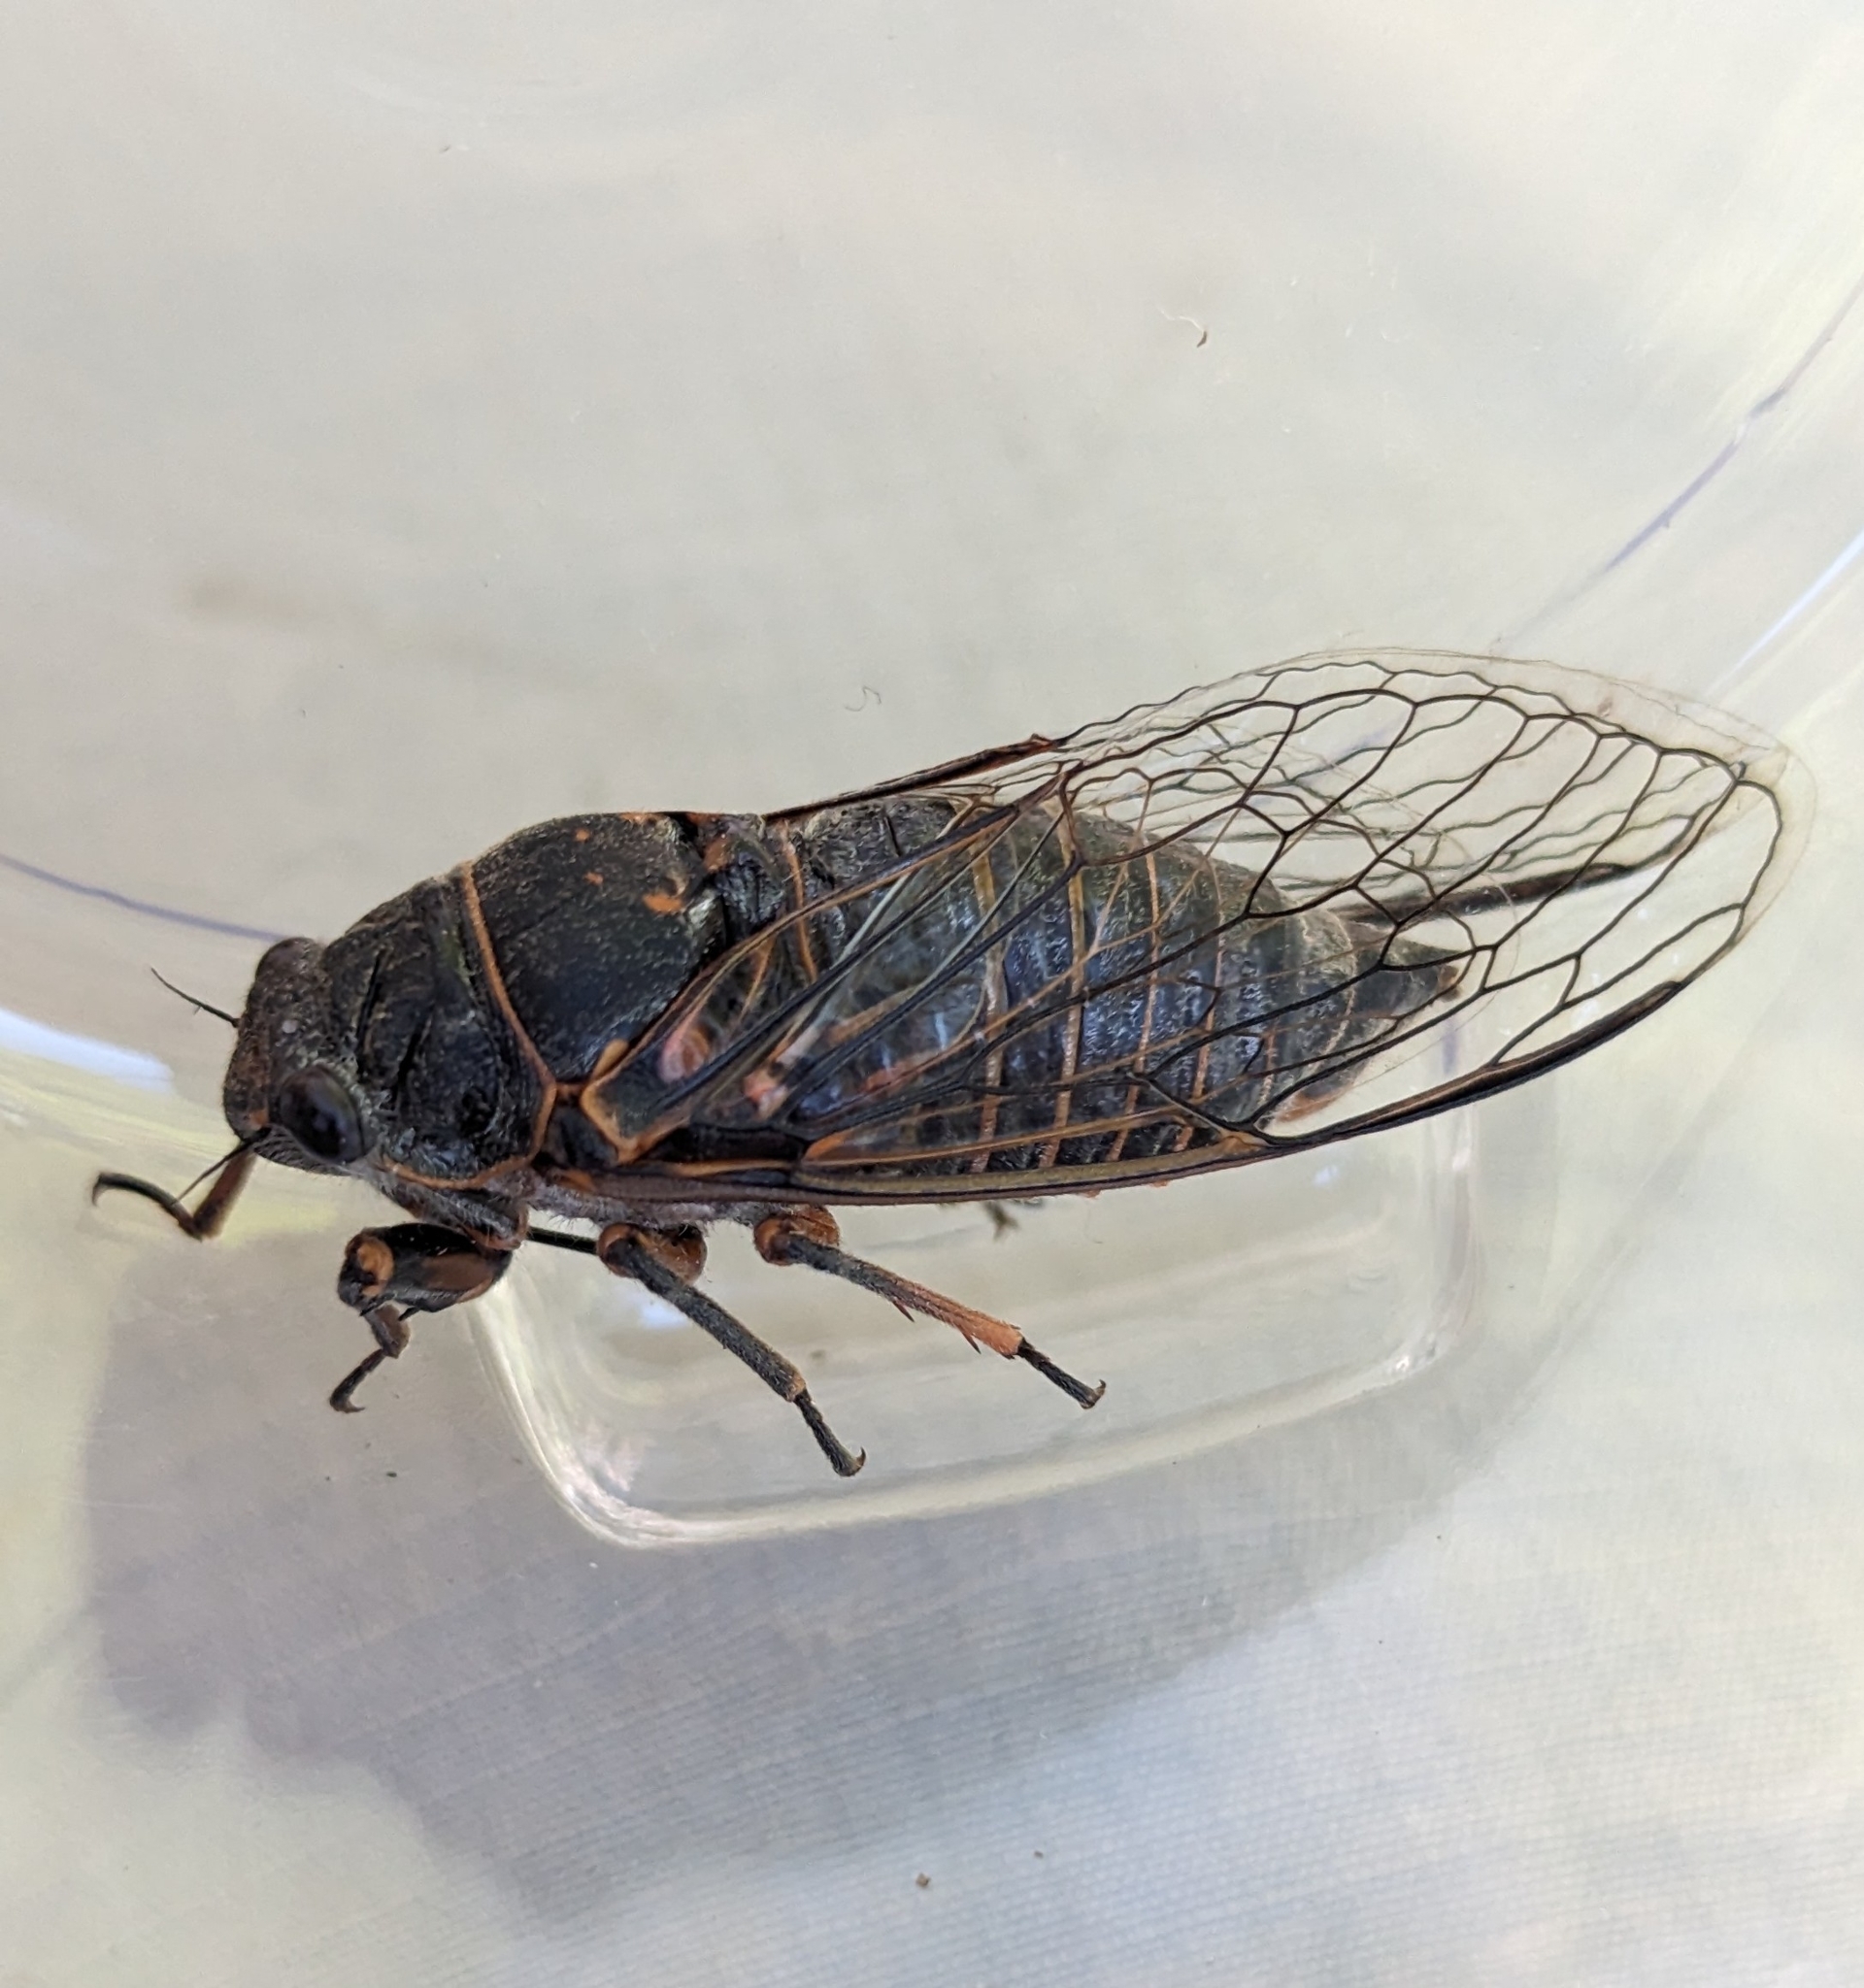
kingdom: Animalia
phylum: Arthropoda
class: Insecta
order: Hemiptera
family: Cicadidae
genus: Okanagana
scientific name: Okanagana occidentalis
